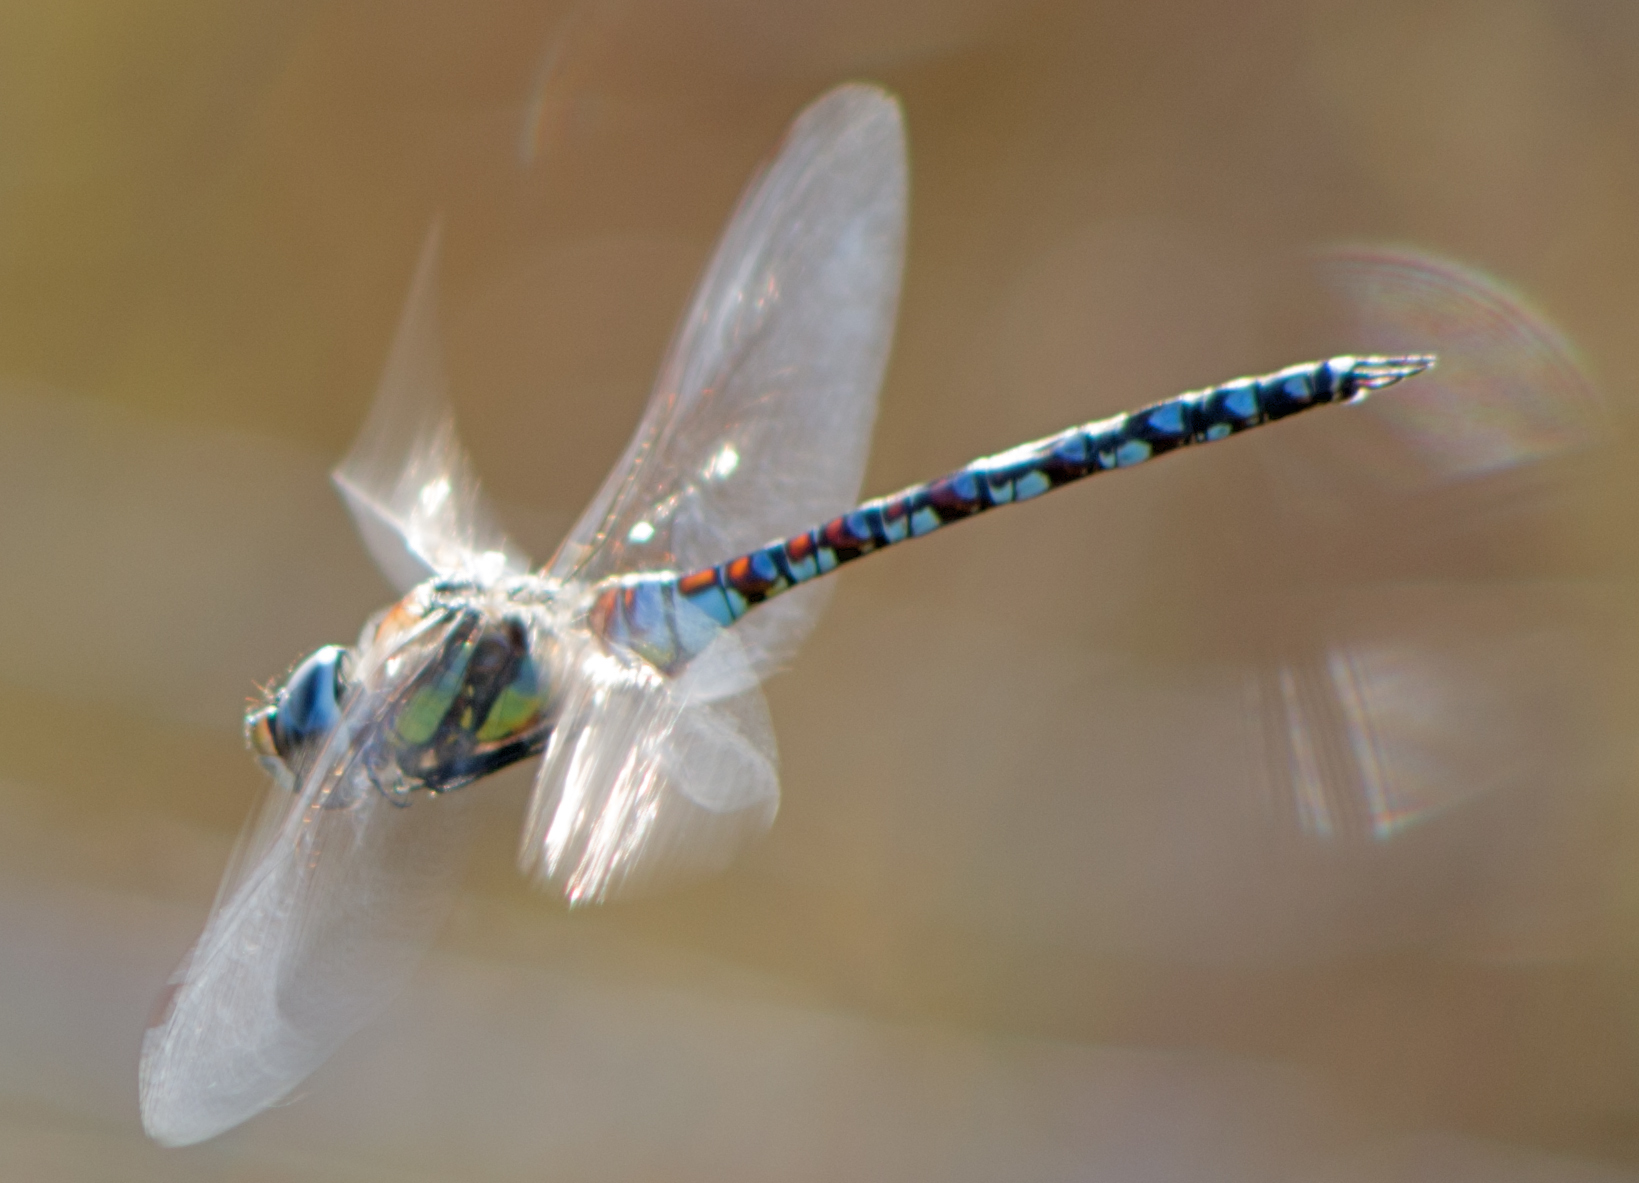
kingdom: Animalia
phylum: Arthropoda
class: Insecta
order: Odonata
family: Aeshnidae
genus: Aeshna
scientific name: Aeshna mixta
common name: Migrant hawker
